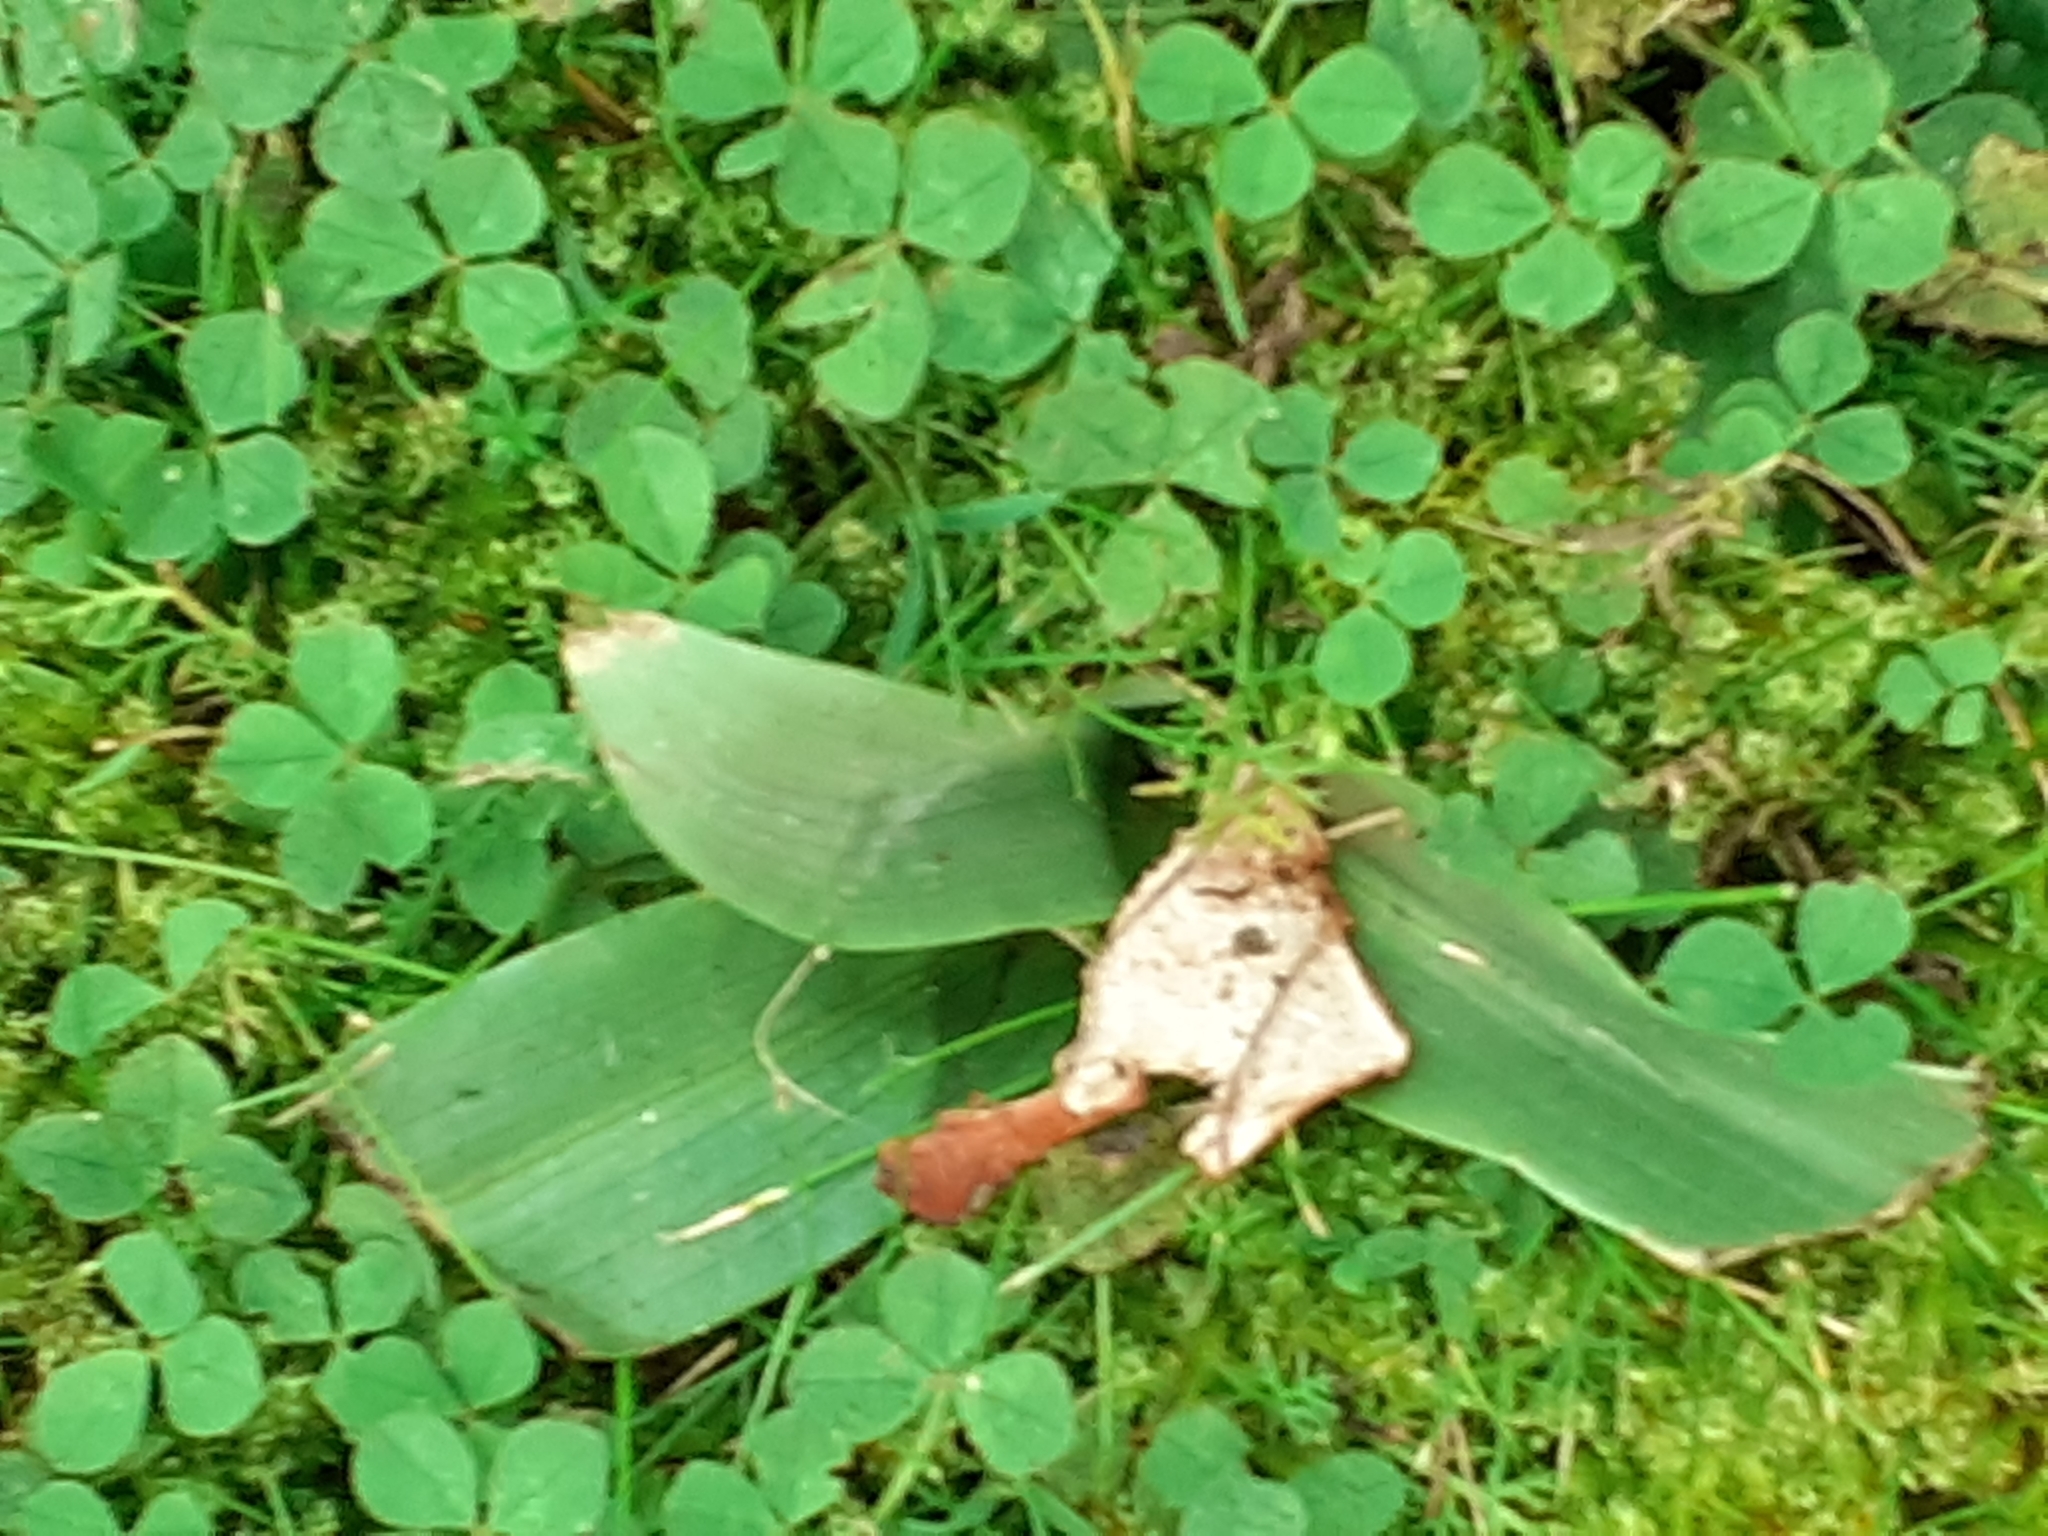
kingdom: Plantae
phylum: Tracheophyta
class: Liliopsida
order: Asparagales
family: Orchidaceae
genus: Ophrys
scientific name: Ophrys apifera
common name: Bee orchid
